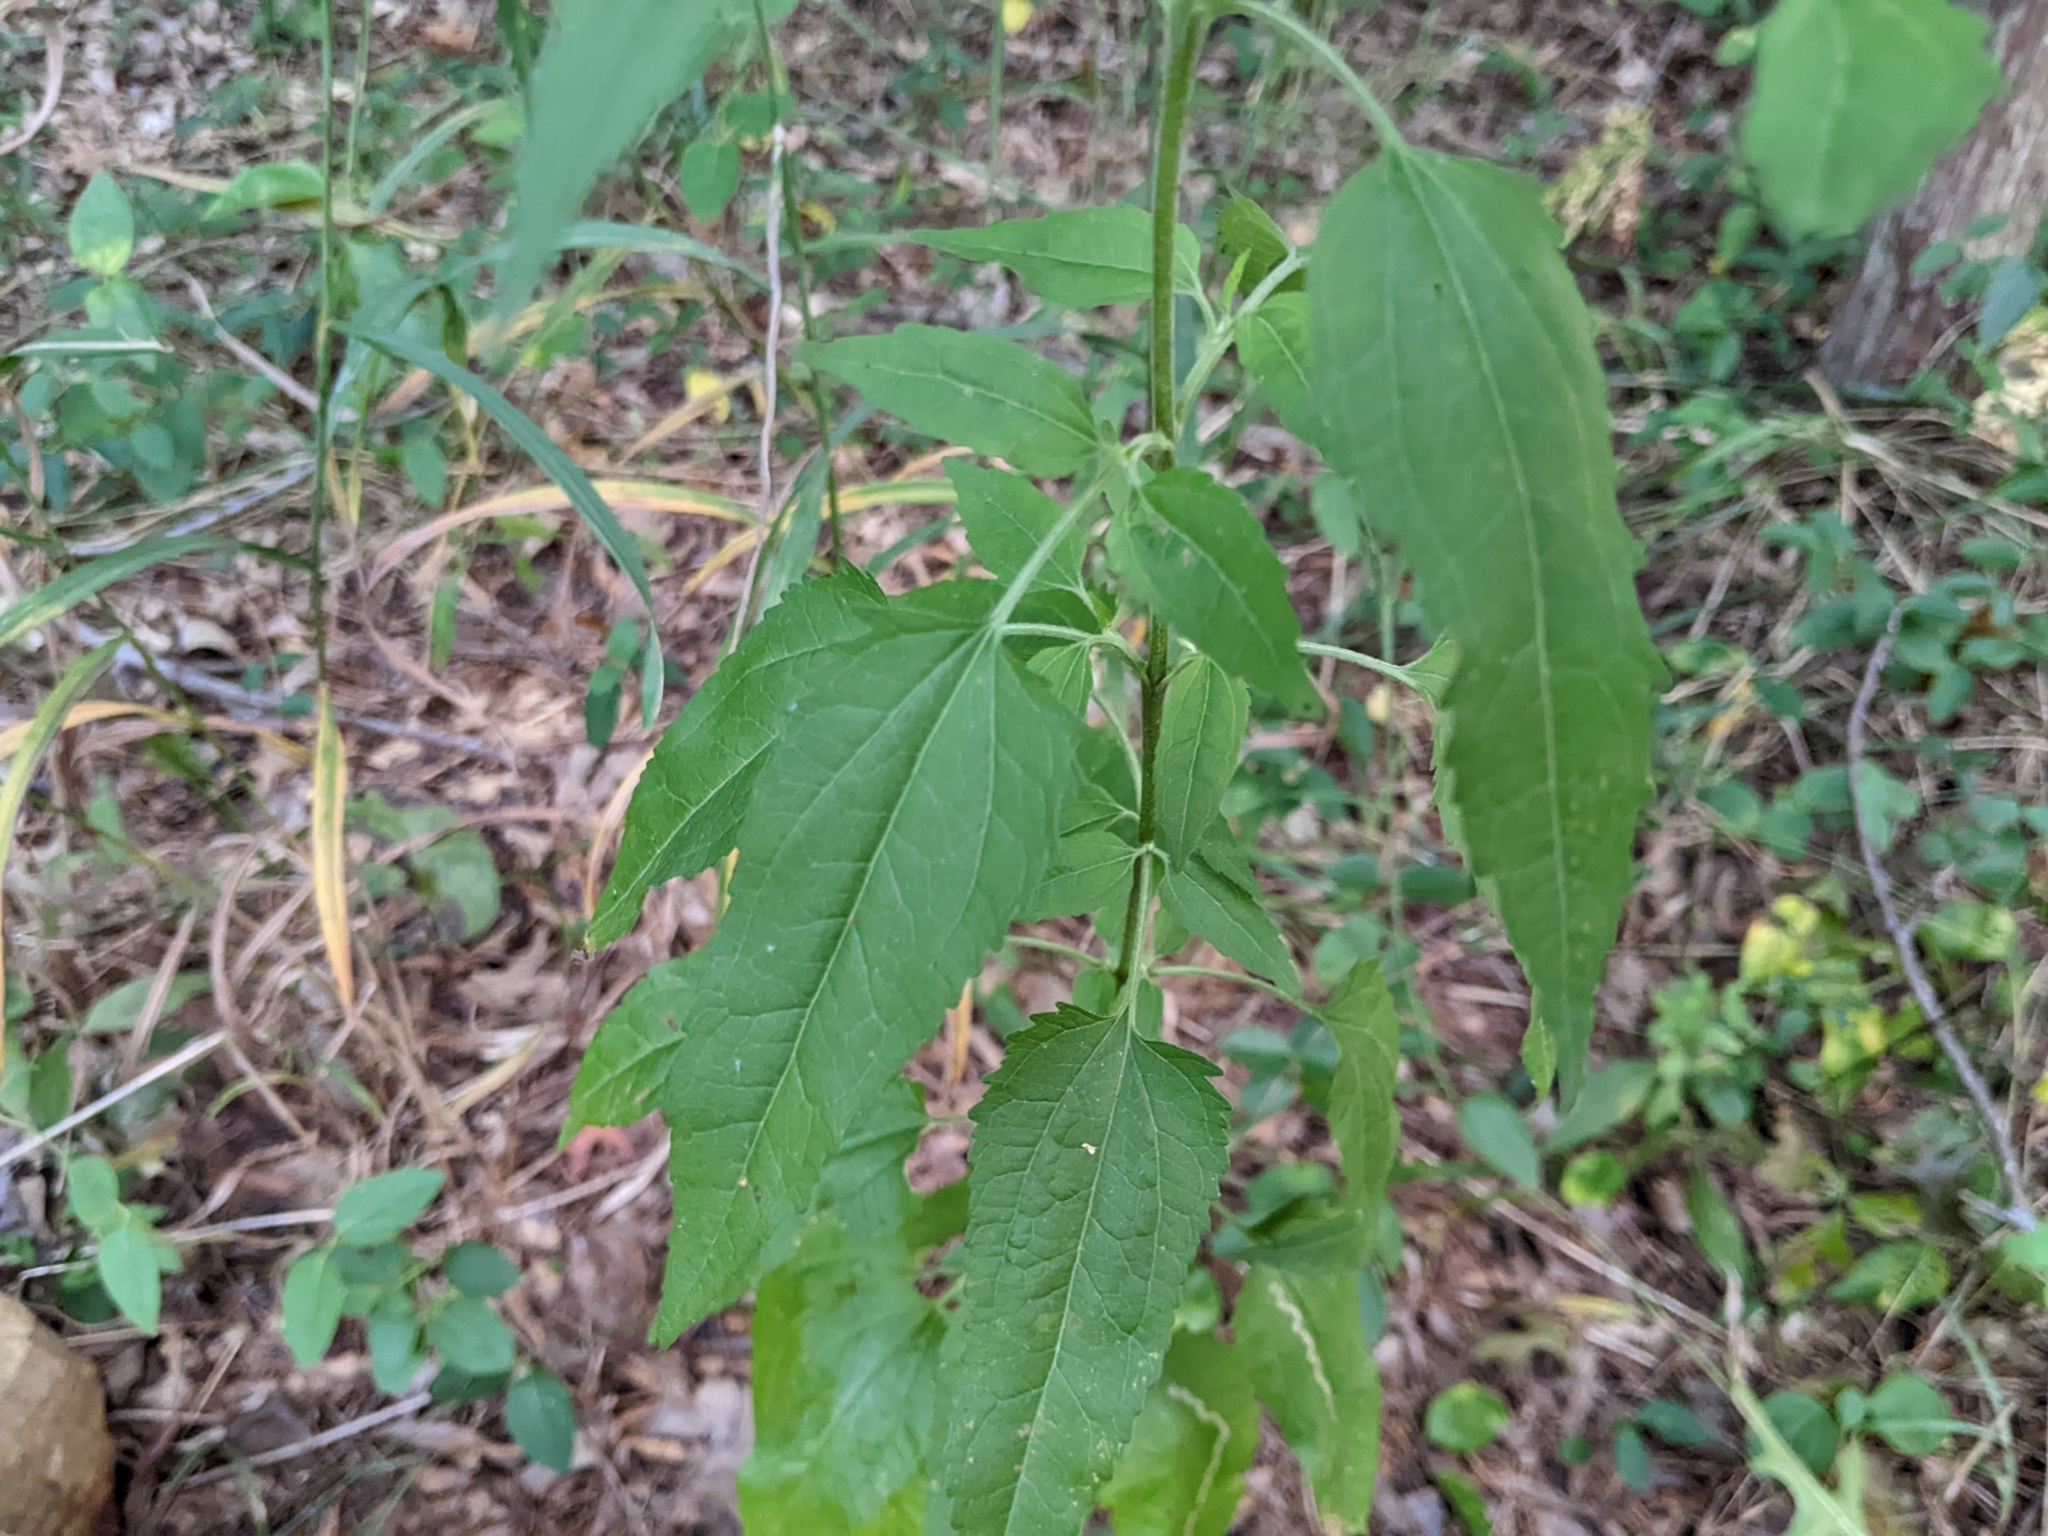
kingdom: Plantae
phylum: Tracheophyta
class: Magnoliopsida
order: Asterales
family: Asteraceae
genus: Eupatorium
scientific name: Eupatorium serotinum
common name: Late boneset
